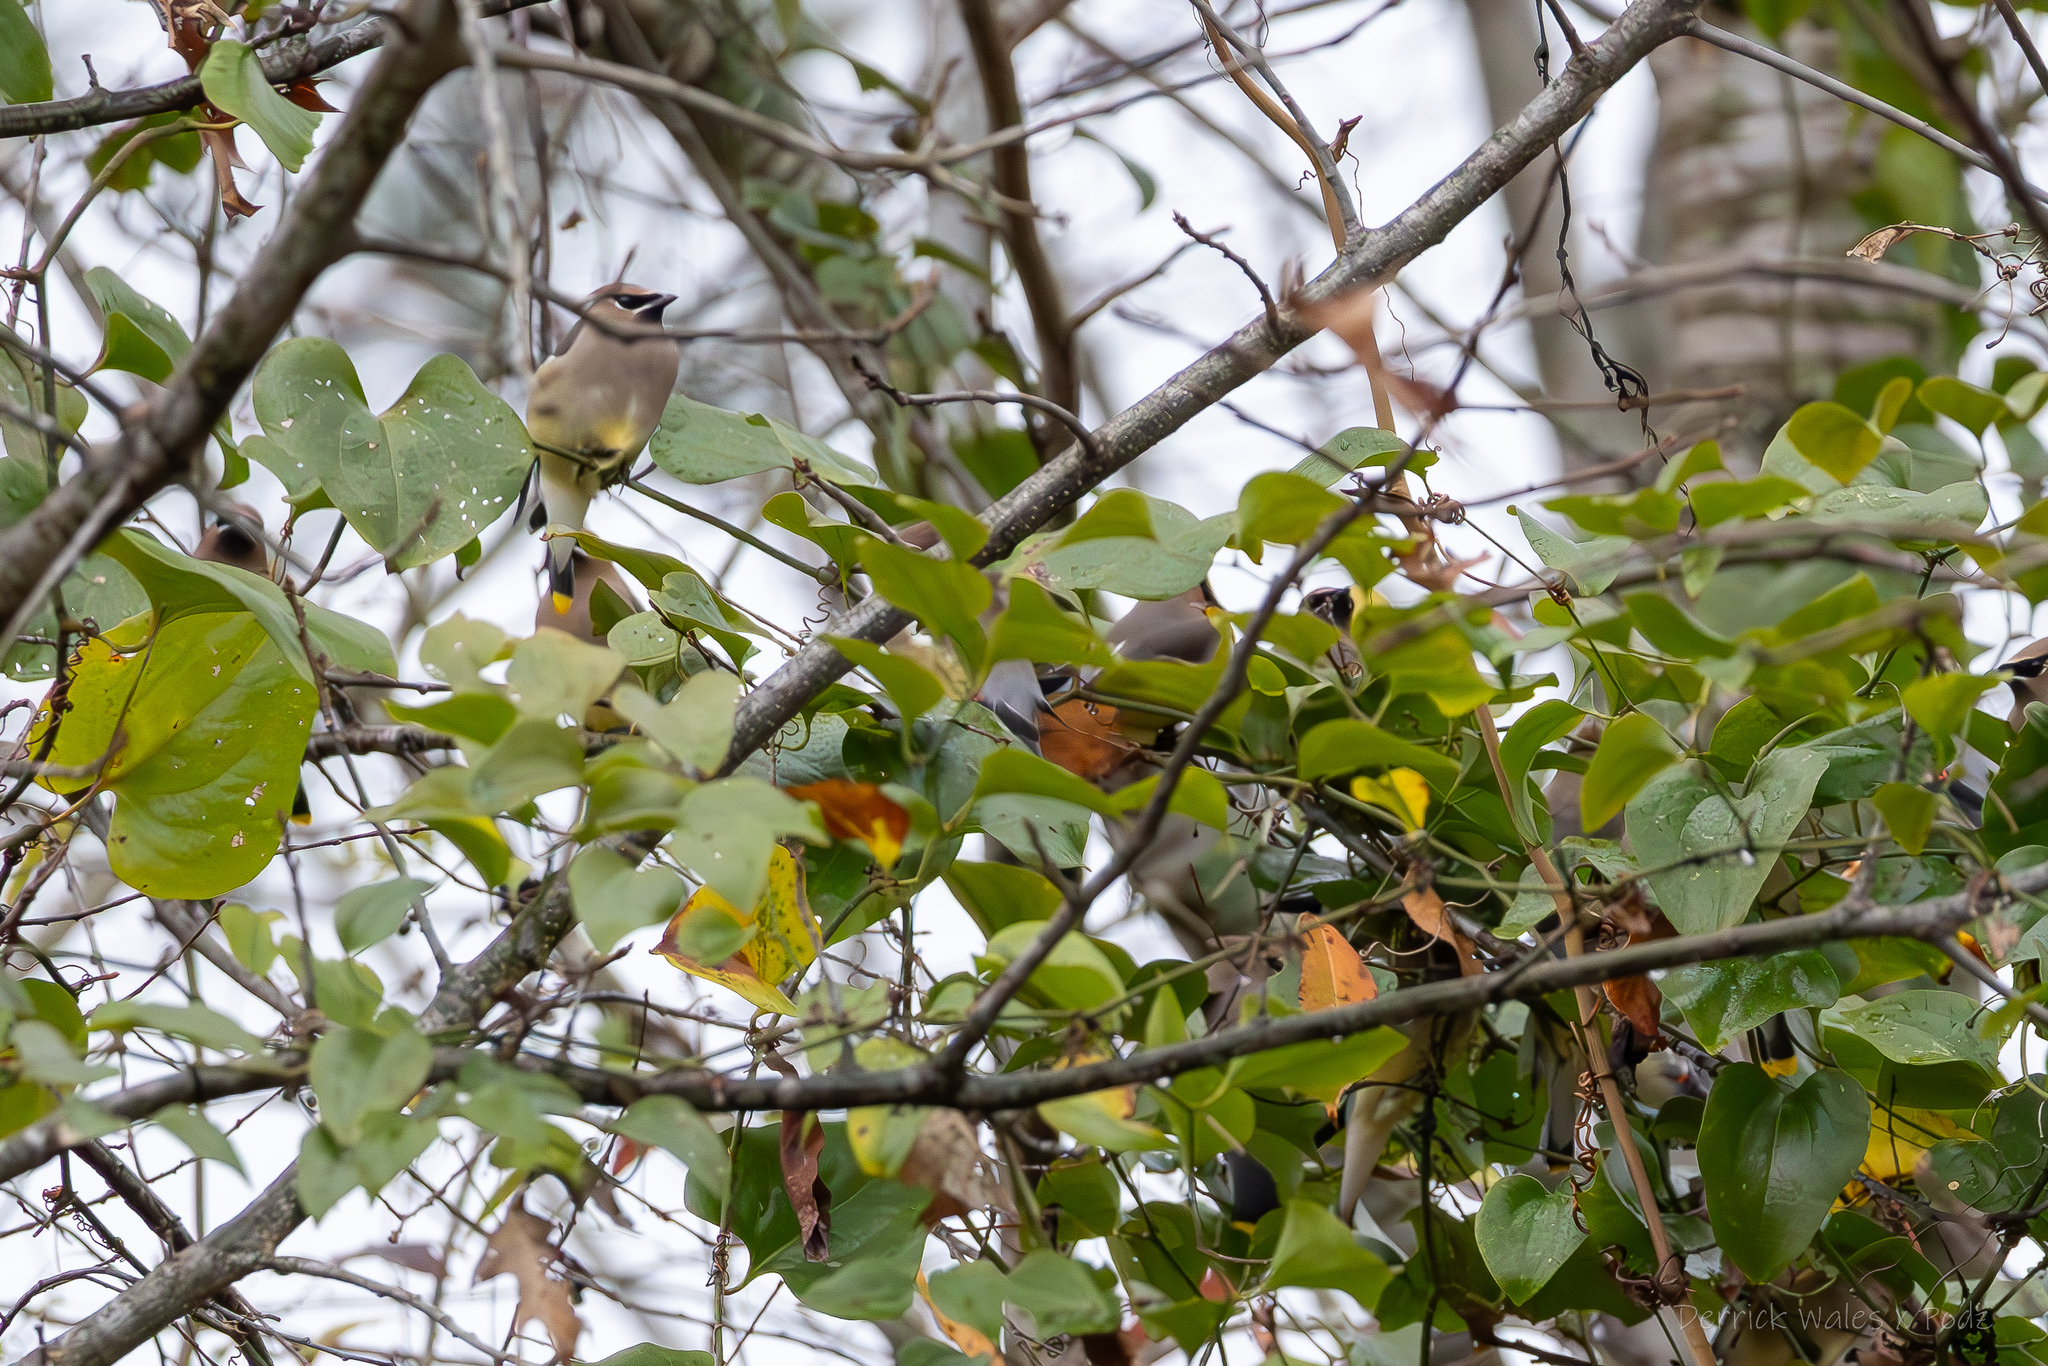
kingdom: Animalia
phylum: Chordata
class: Aves
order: Passeriformes
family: Bombycillidae
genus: Bombycilla
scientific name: Bombycilla cedrorum
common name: Cedar waxwing
